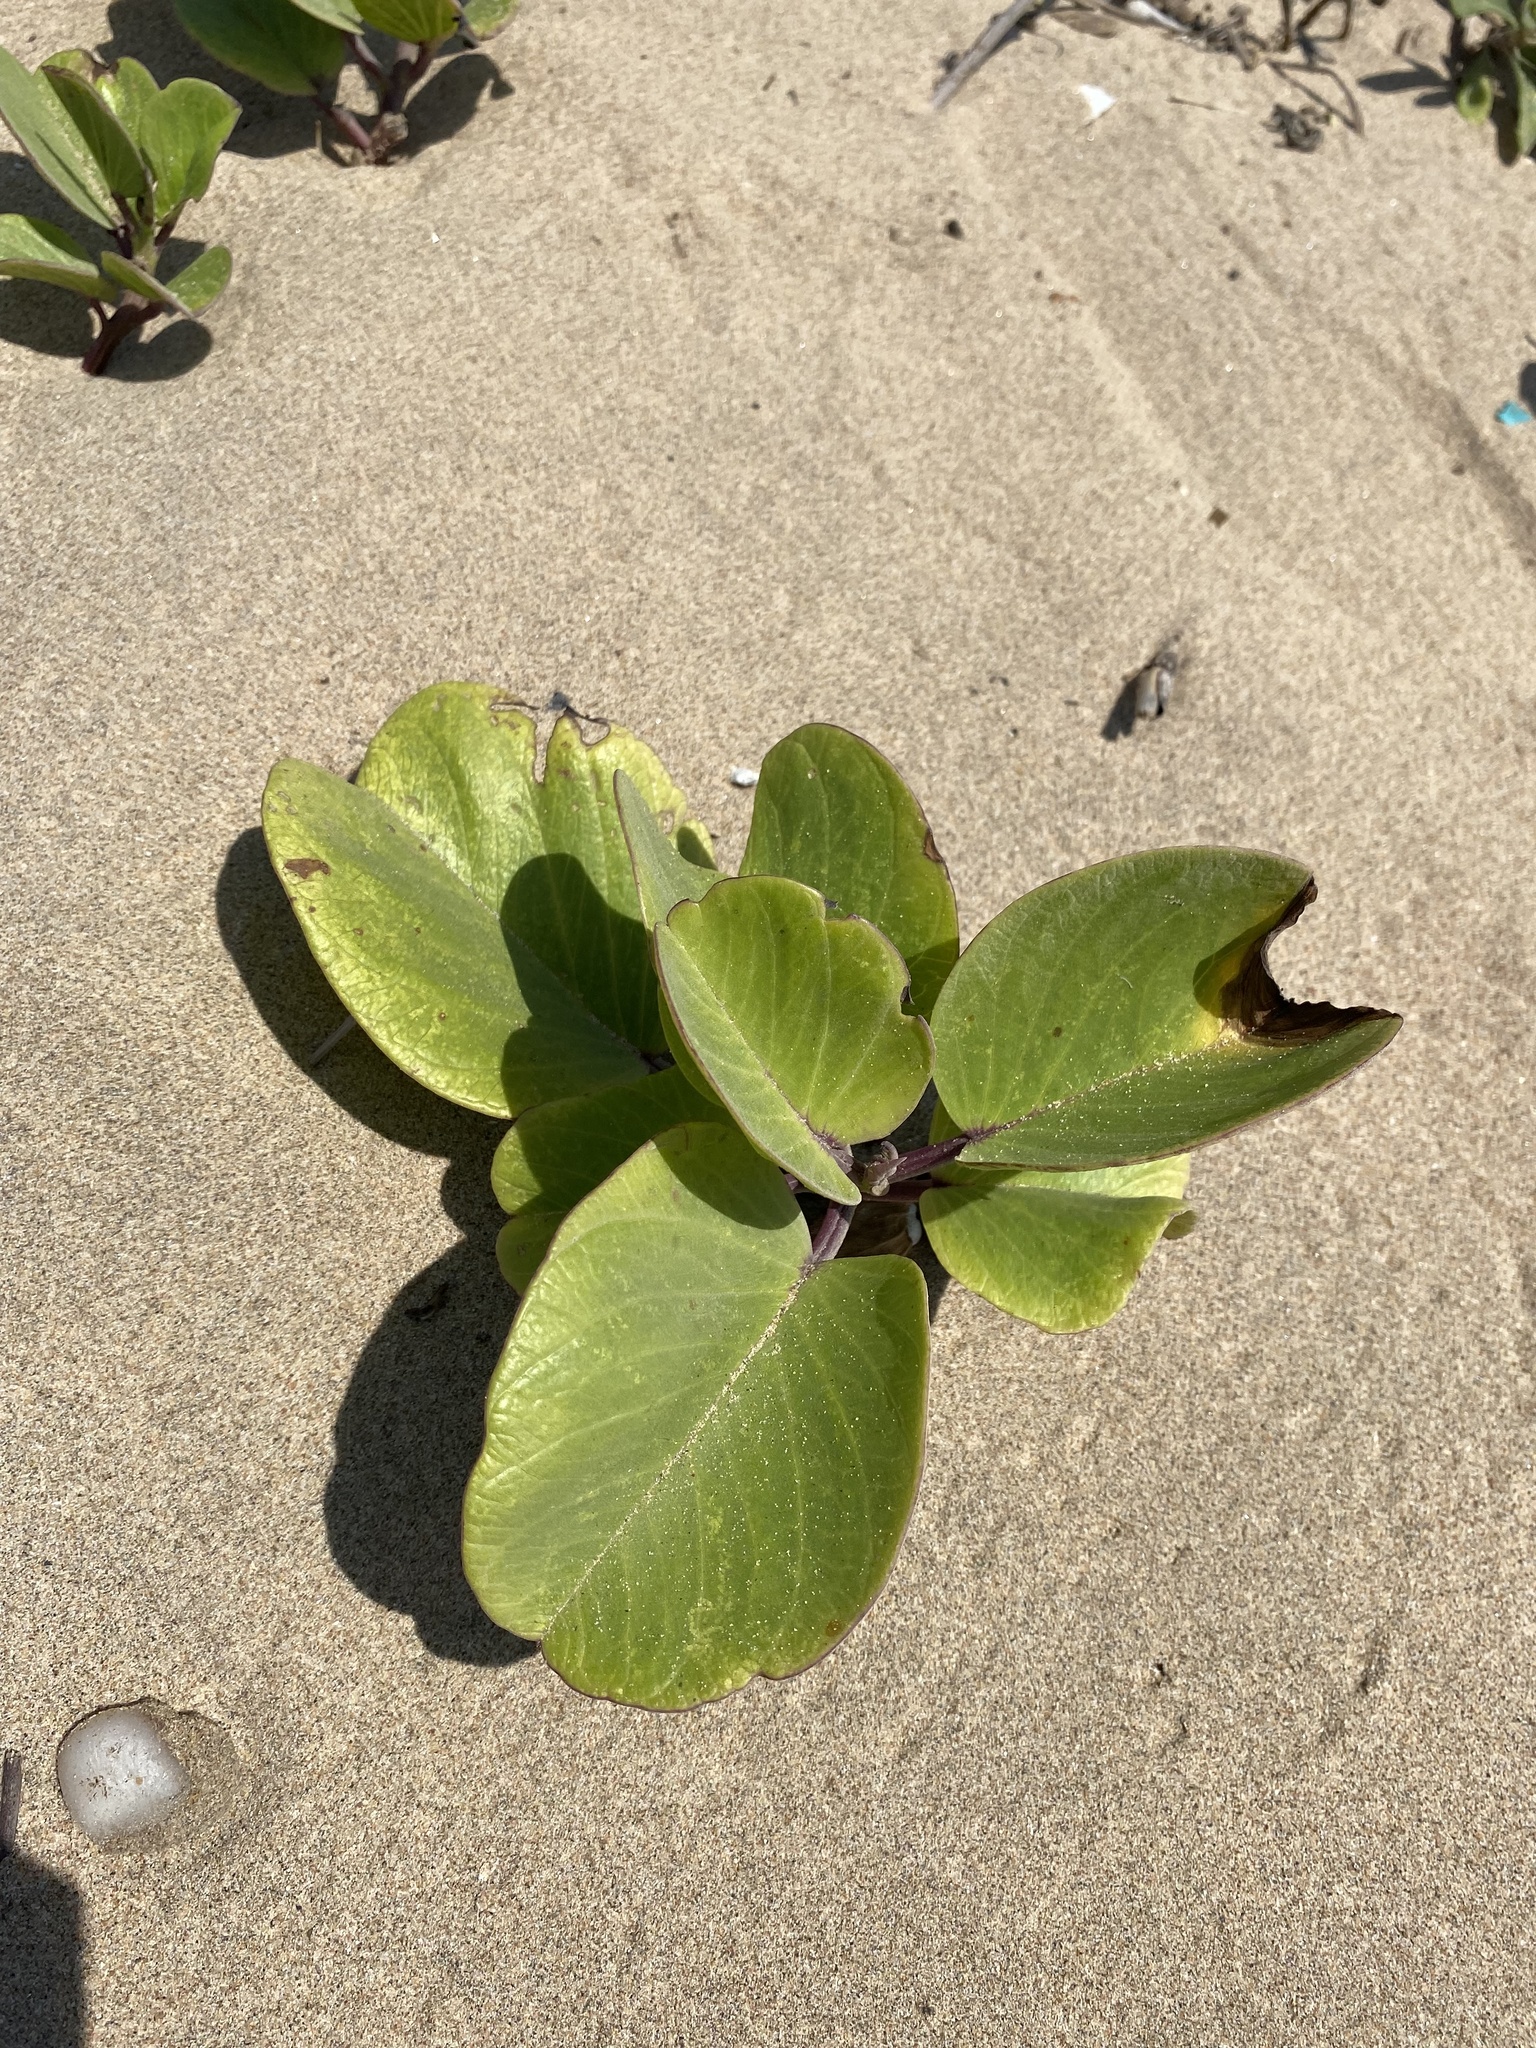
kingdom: Plantae
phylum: Tracheophyta
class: Magnoliopsida
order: Solanales
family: Convolvulaceae
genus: Ipomoea
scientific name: Ipomoea pes-caprae
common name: Beach morning glory
